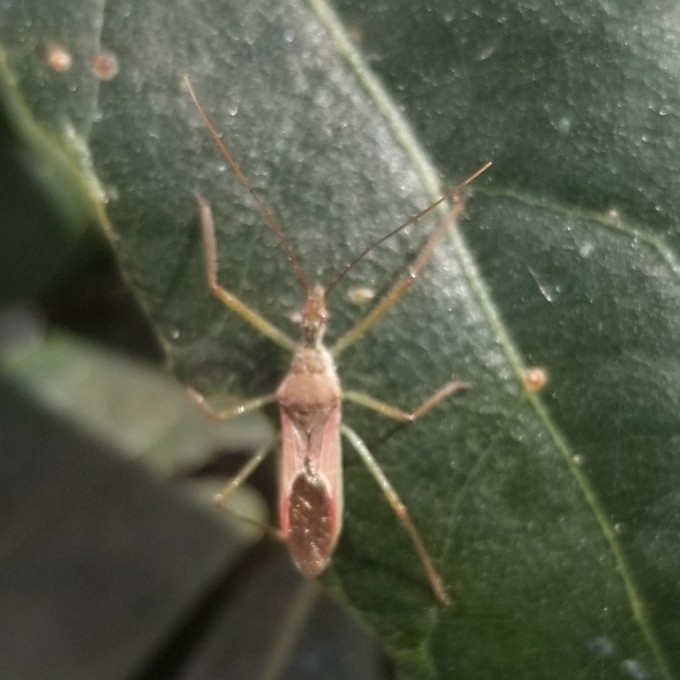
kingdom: Animalia
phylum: Arthropoda
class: Insecta
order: Hemiptera
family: Reduviidae
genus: Zelus
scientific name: Zelus renardii
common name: Assassin bug
